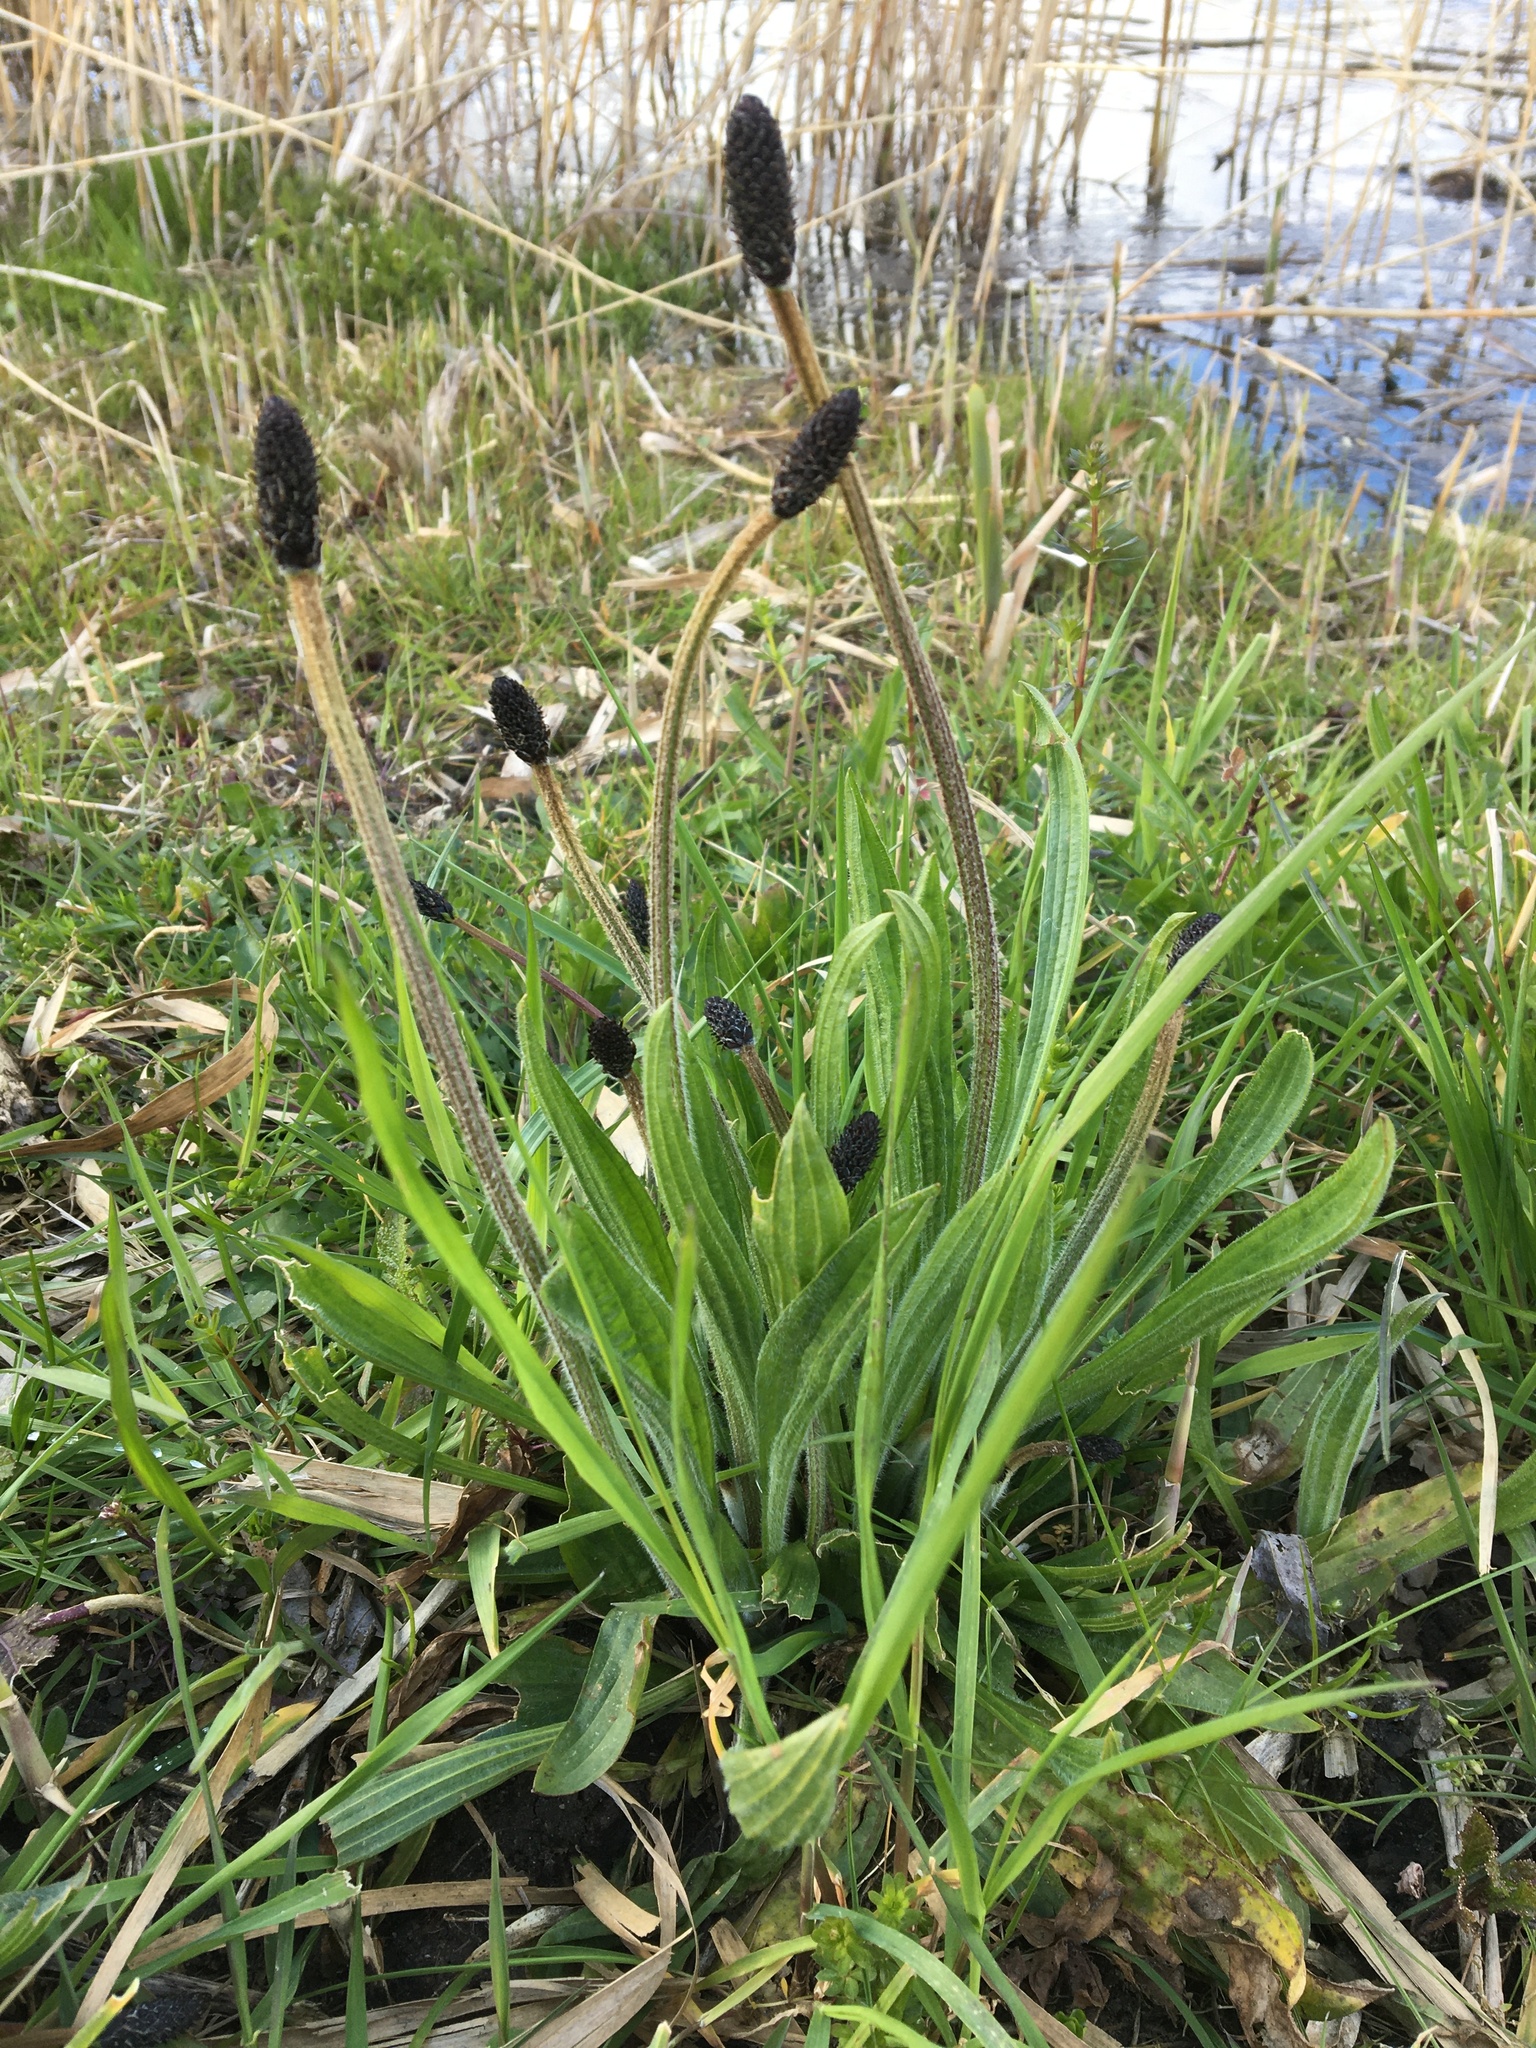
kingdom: Plantae
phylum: Tracheophyta
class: Magnoliopsida
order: Lamiales
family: Plantaginaceae
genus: Plantago
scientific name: Plantago lanceolata
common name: Ribwort plantain
